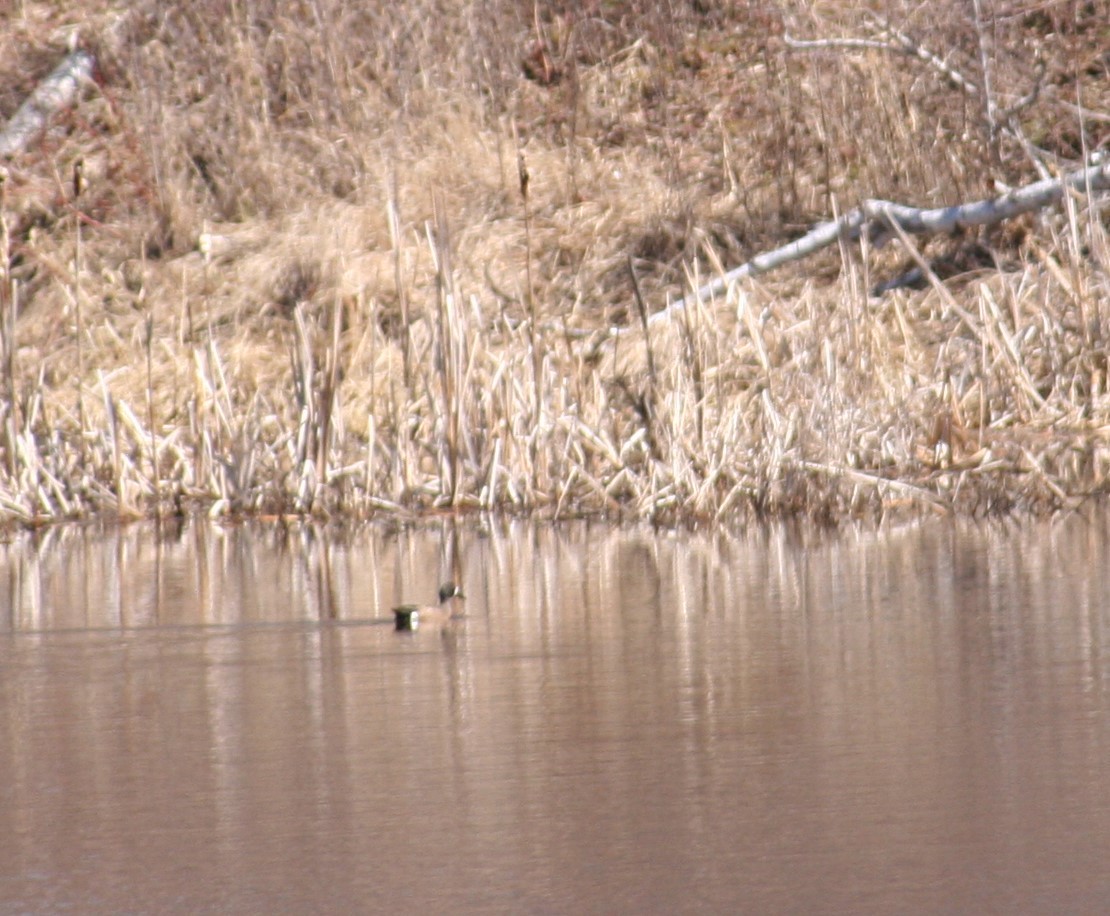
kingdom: Animalia
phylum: Chordata
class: Aves
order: Anseriformes
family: Anatidae
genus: Spatula
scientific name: Spatula discors
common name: Blue-winged teal
